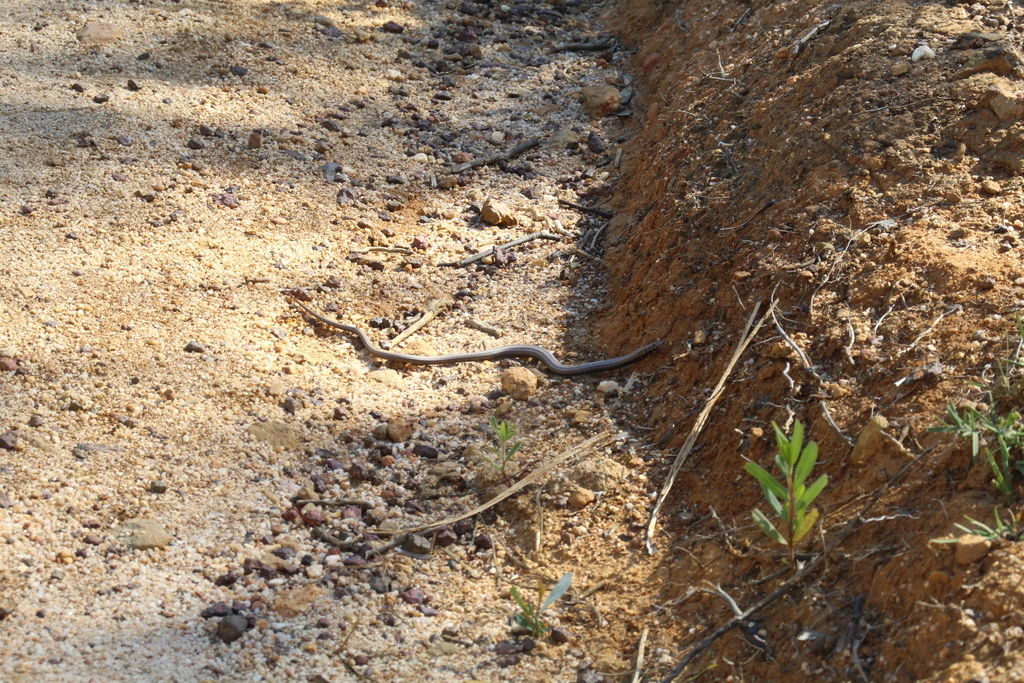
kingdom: Animalia
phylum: Chordata
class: Squamata
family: Pygopodidae
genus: Lialis
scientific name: Lialis burtonis
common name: Burton's legless lizard
